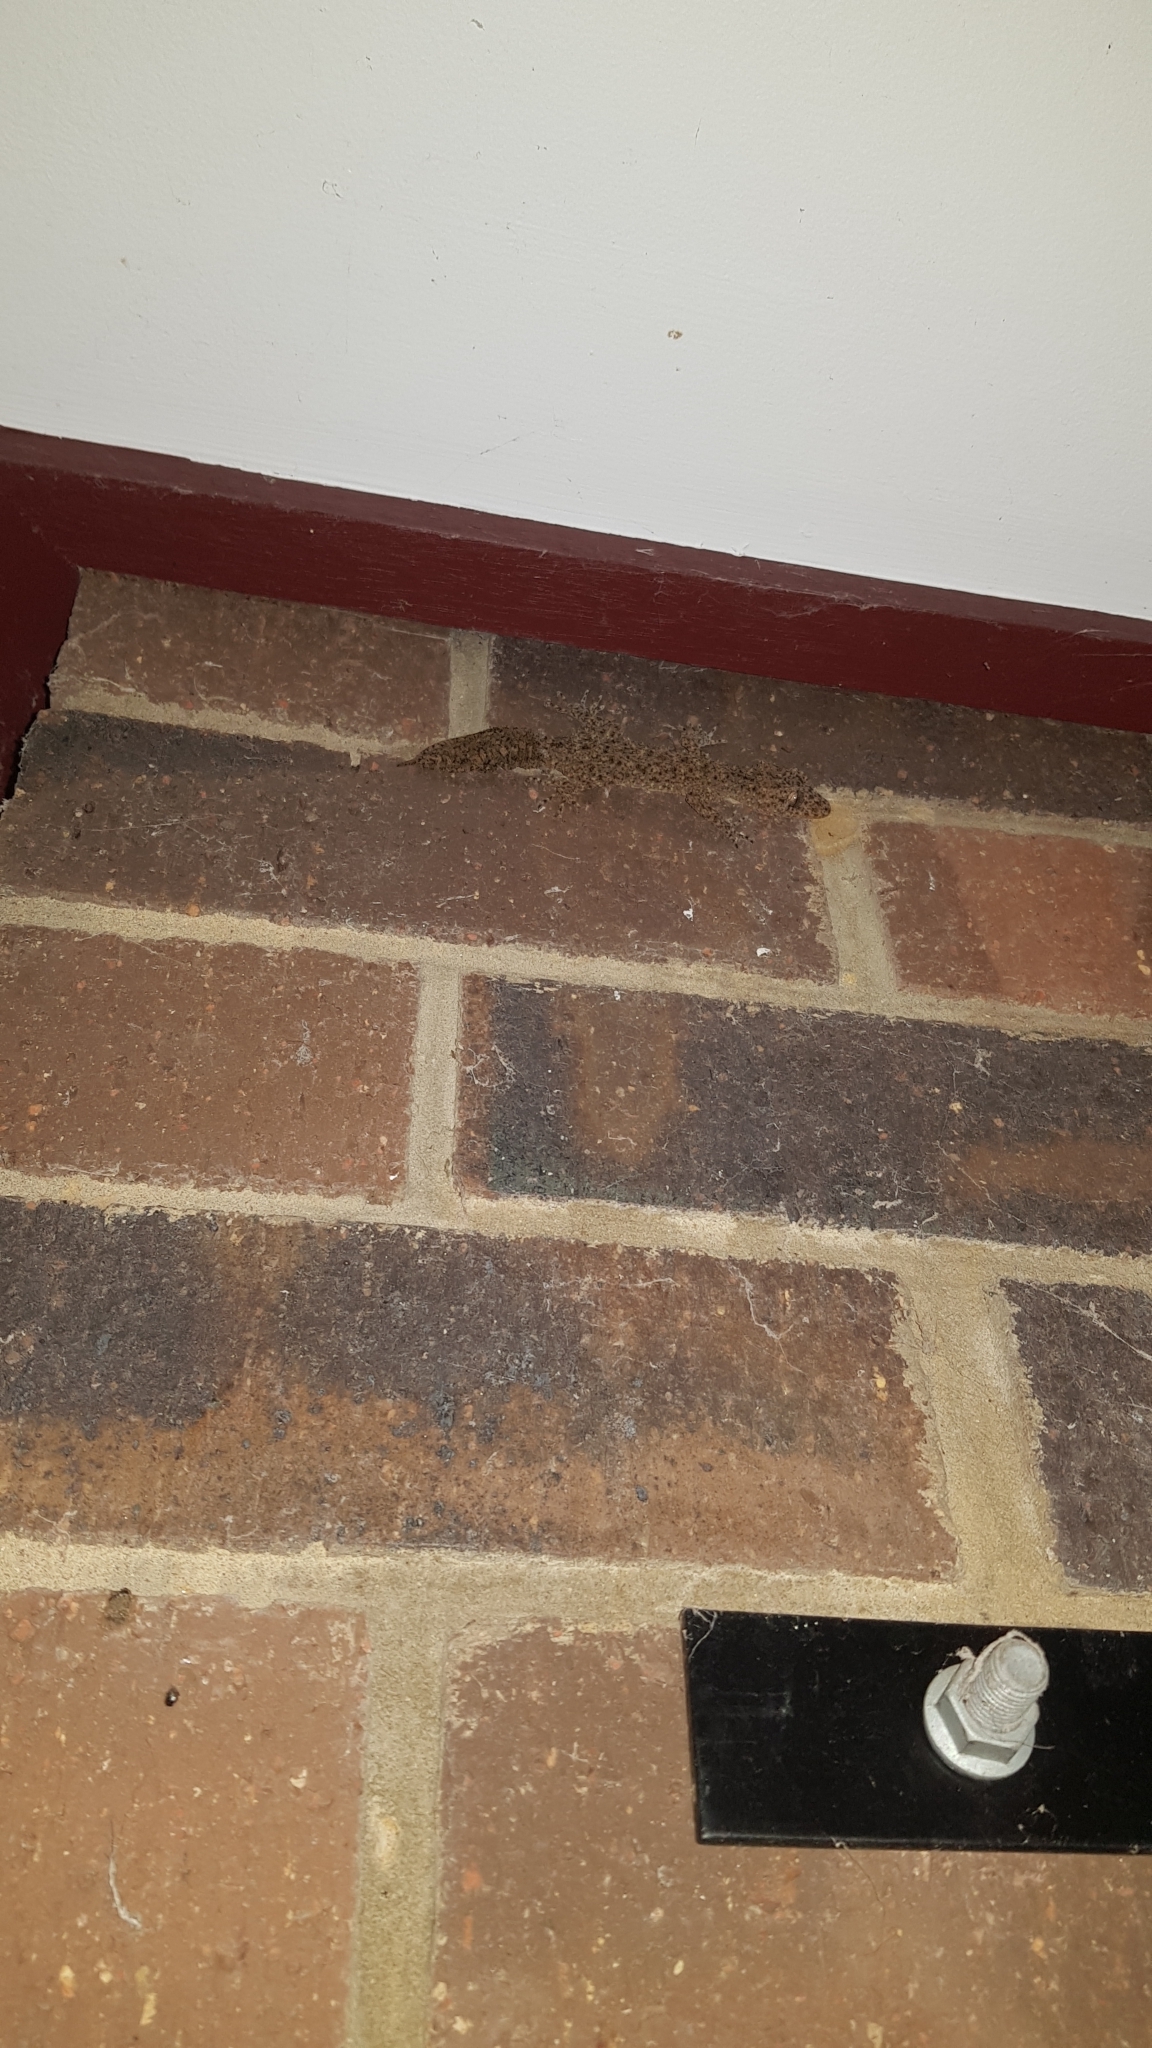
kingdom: Animalia
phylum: Chordata
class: Squamata
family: Carphodactylidae
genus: Phyllurus
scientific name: Phyllurus platurus
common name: Broad-tailed gecko
